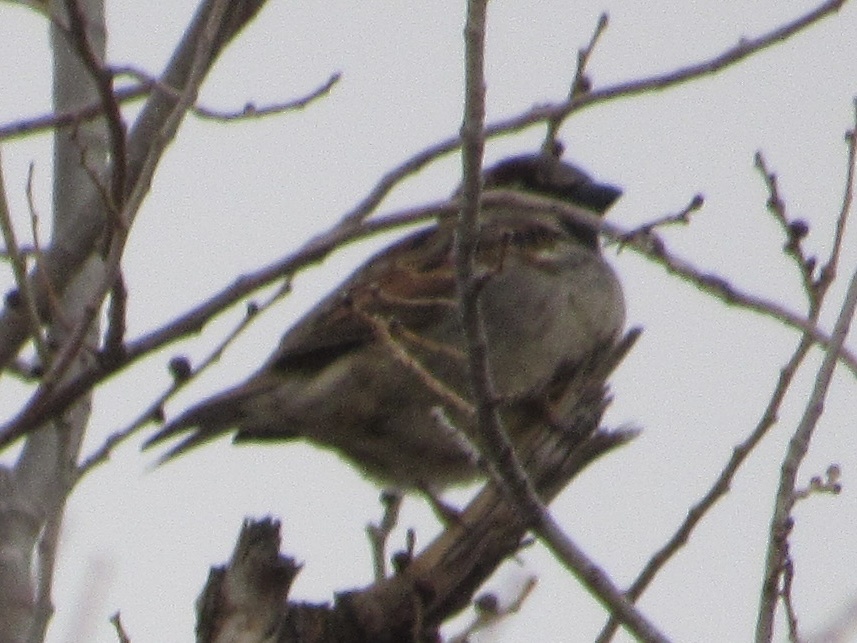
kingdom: Animalia
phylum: Chordata
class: Aves
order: Passeriformes
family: Passeridae
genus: Passer
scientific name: Passer domesticus
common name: House sparrow
